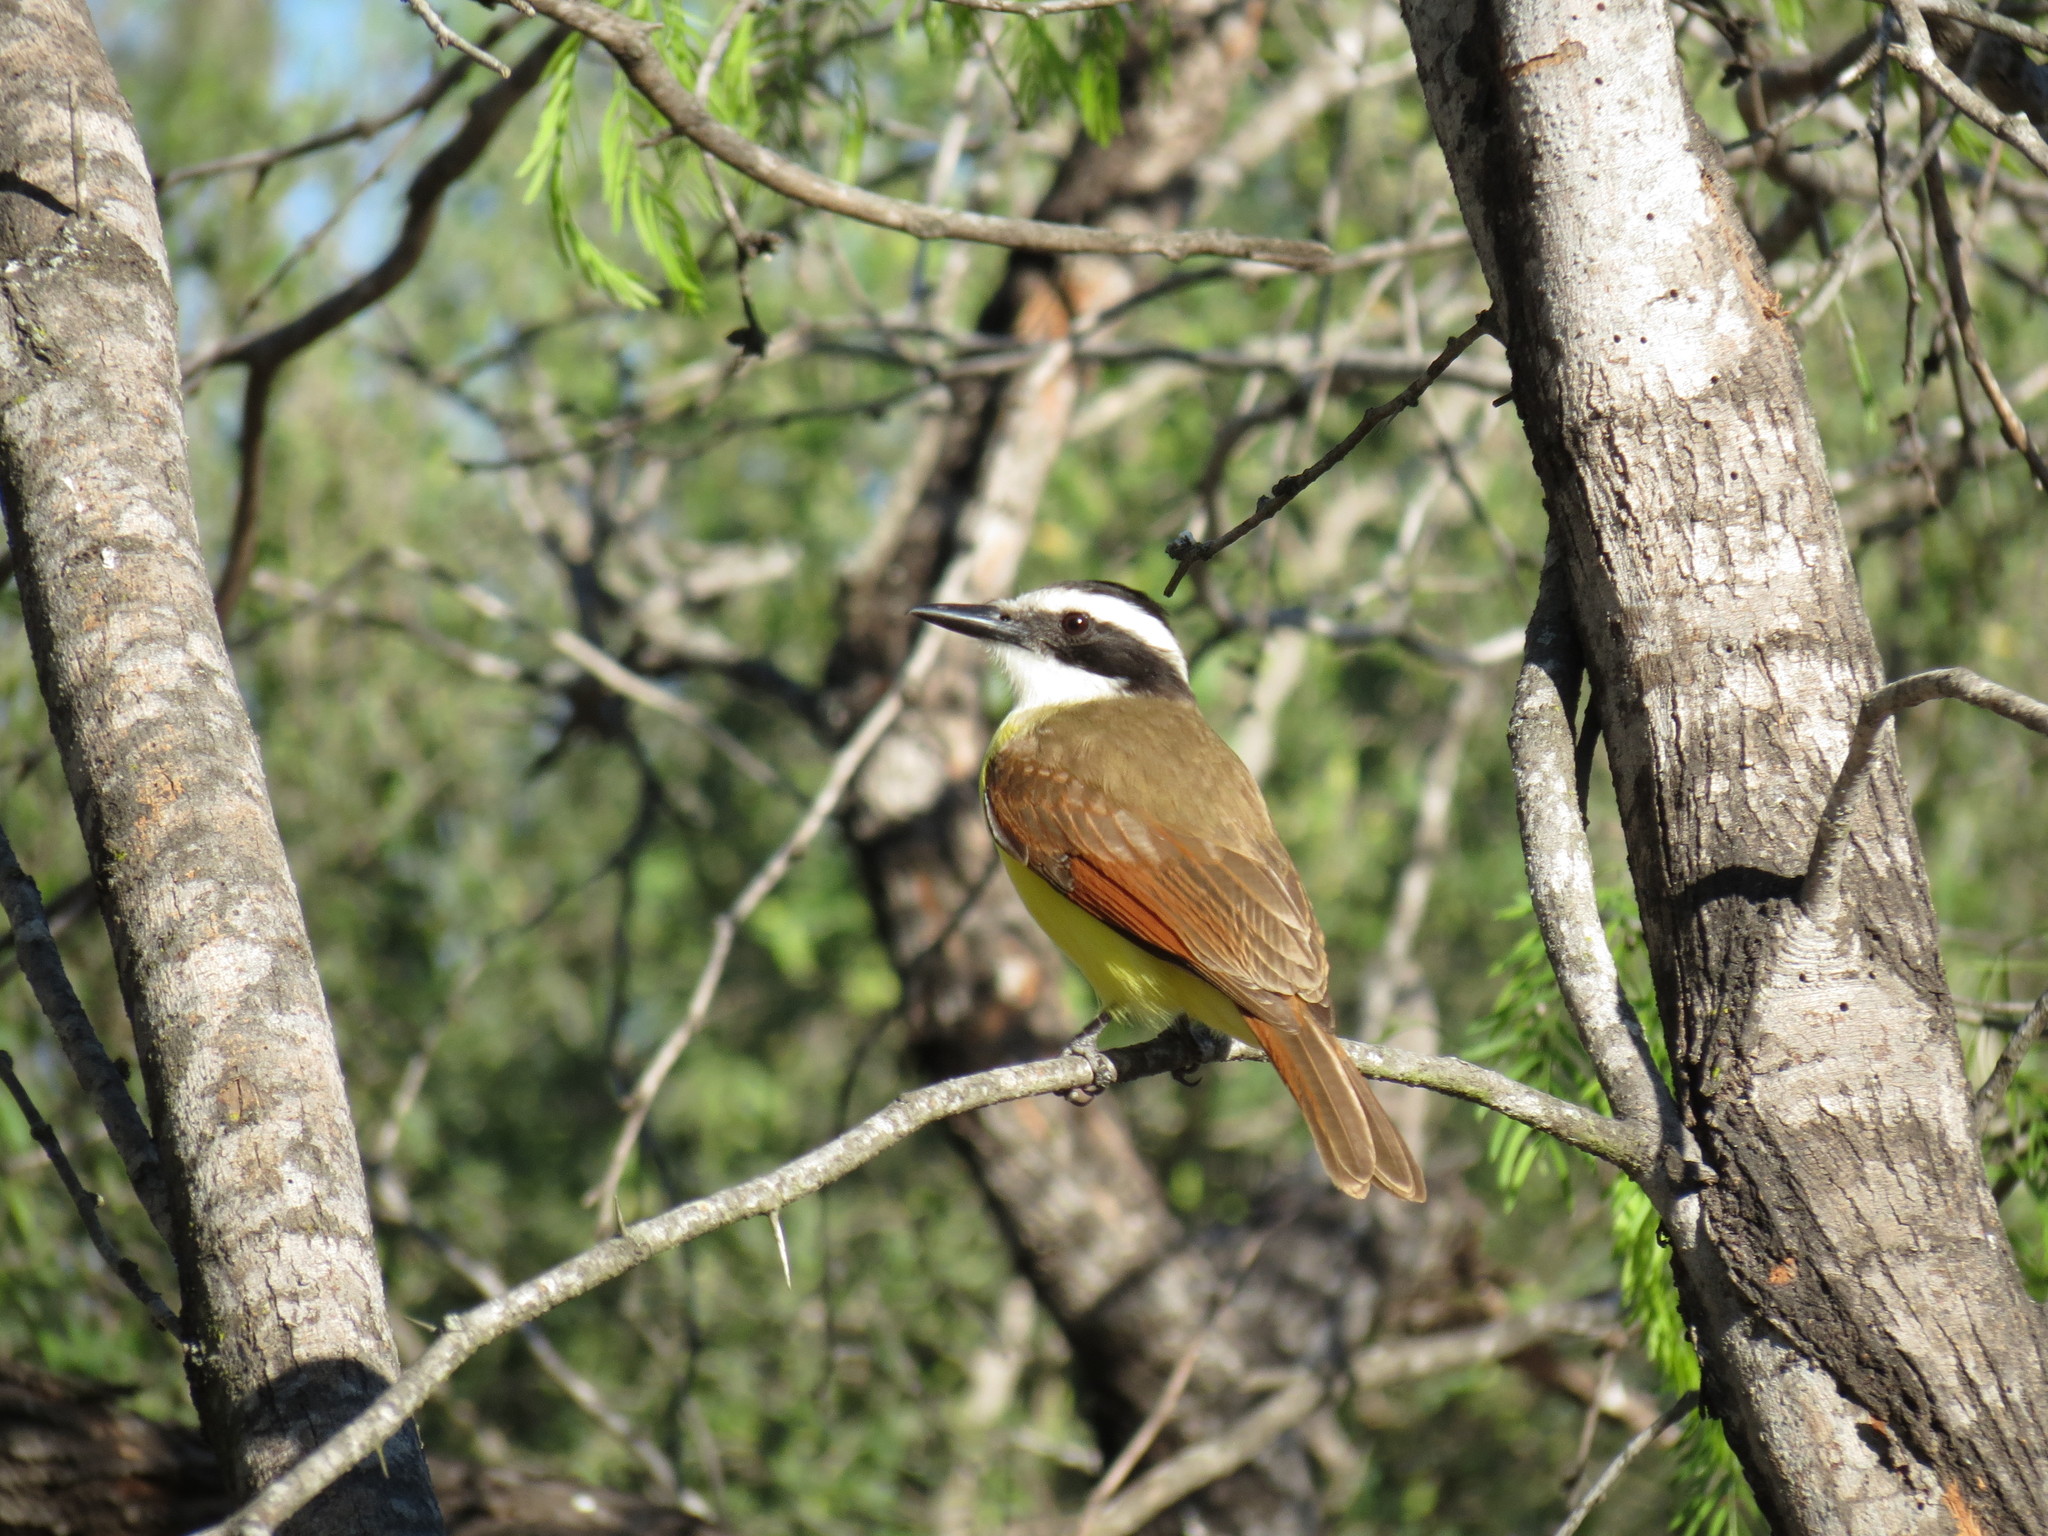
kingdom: Animalia
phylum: Chordata
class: Aves
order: Passeriformes
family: Tyrannidae
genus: Pitangus
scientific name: Pitangus sulphuratus
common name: Great kiskadee
